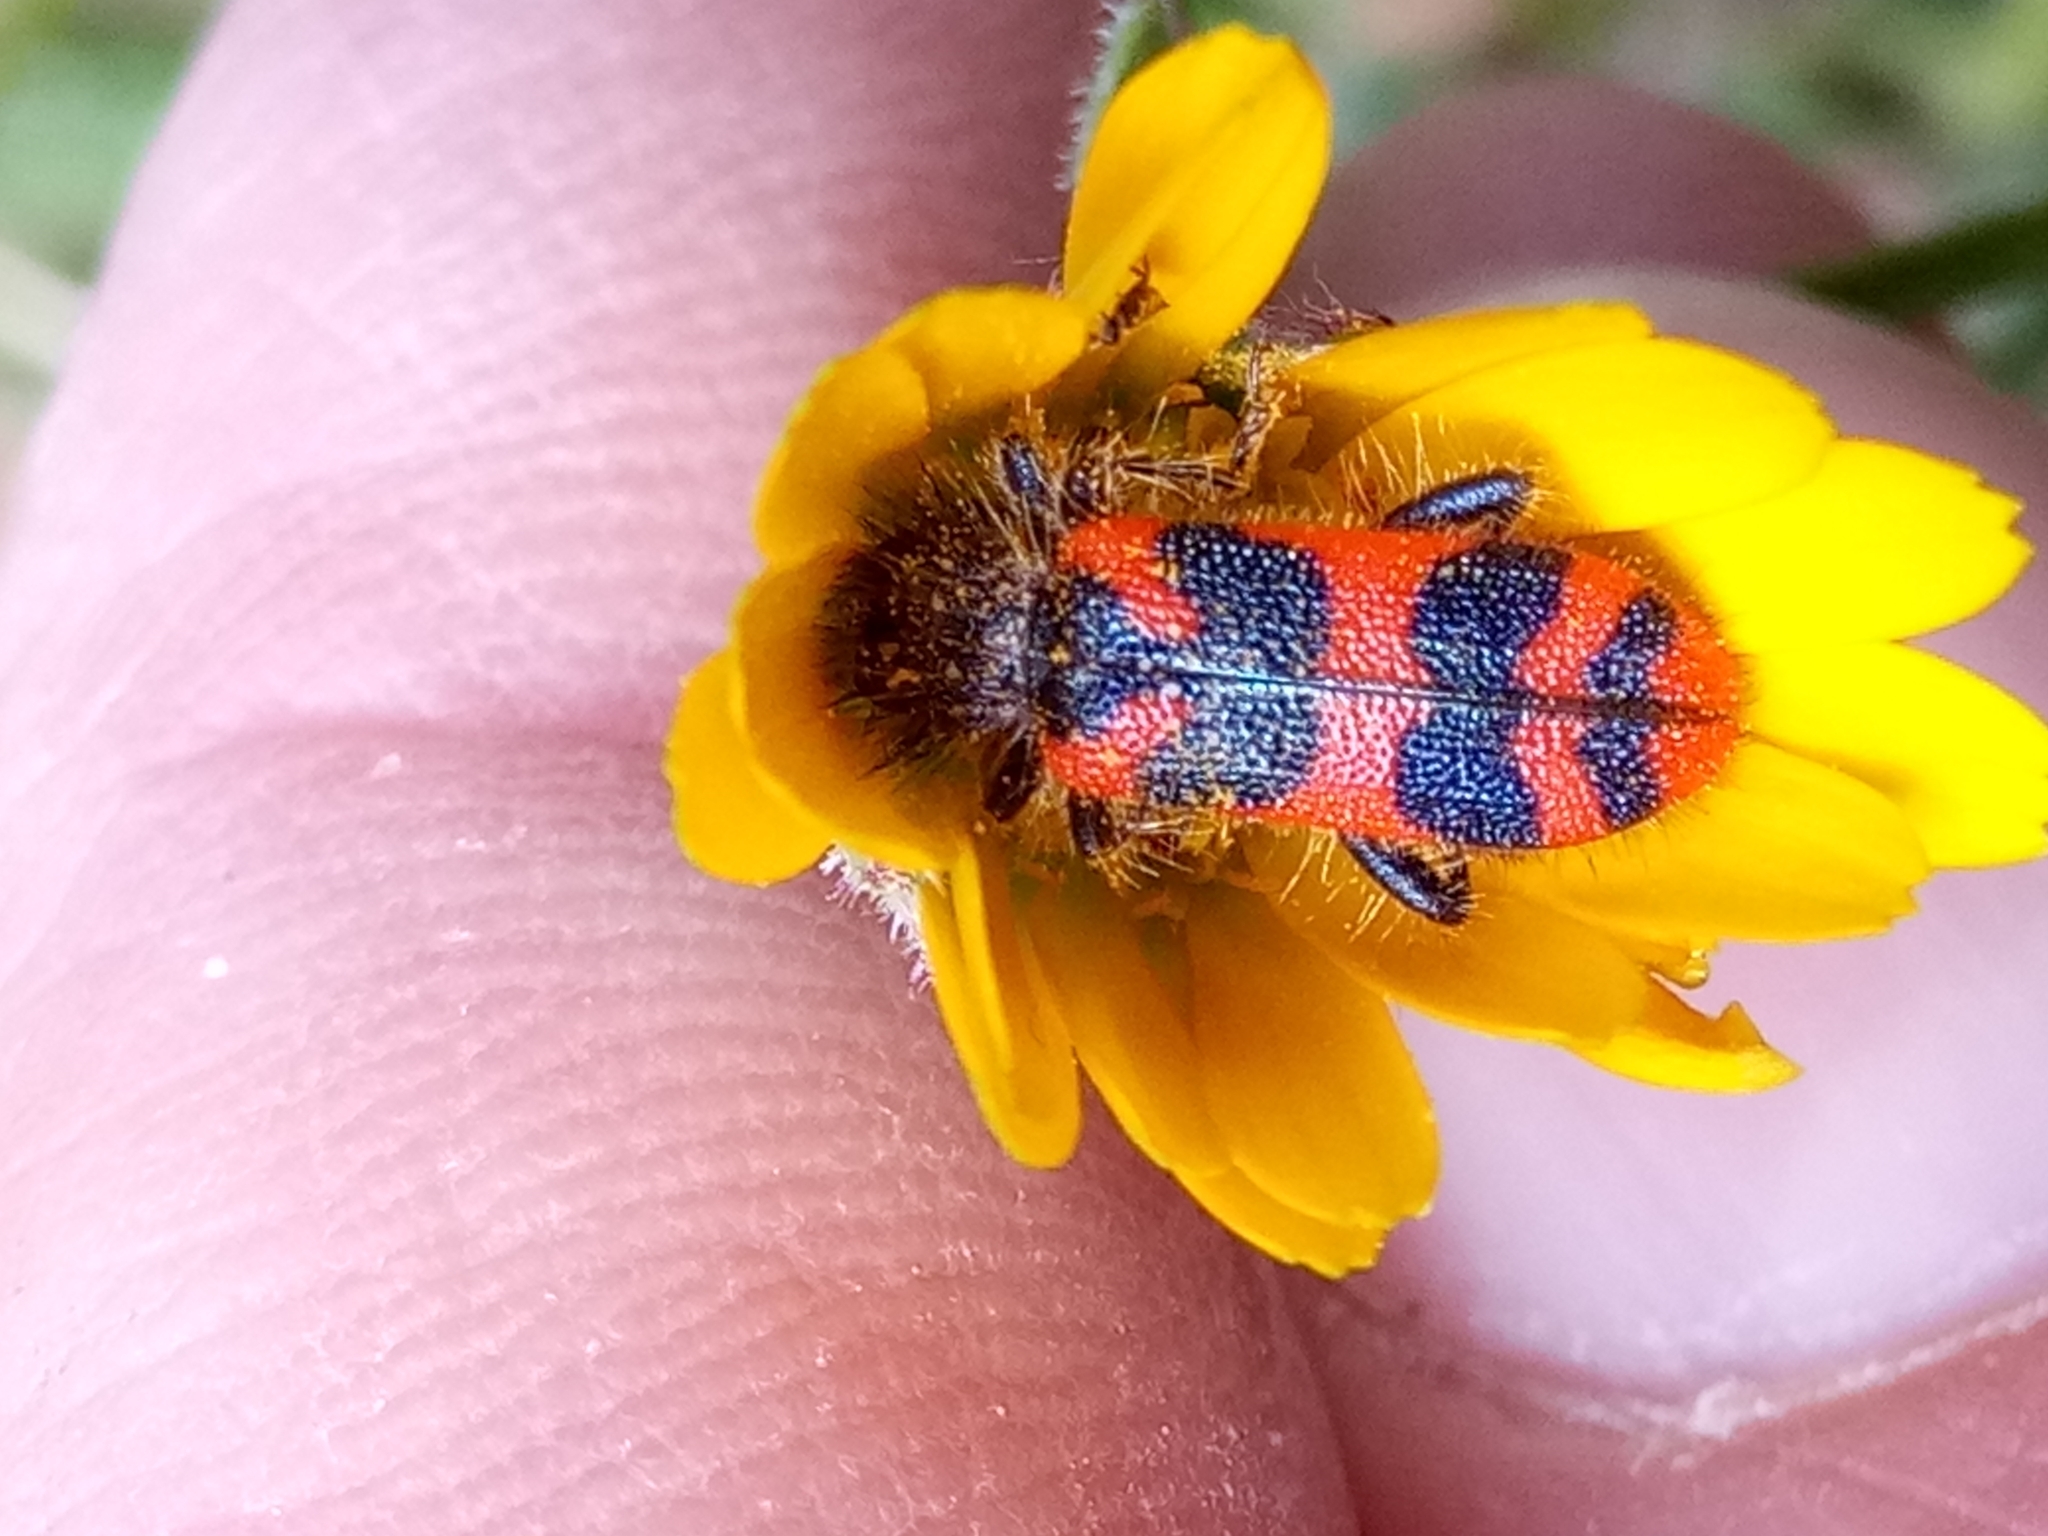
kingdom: Animalia
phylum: Arthropoda
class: Insecta
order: Coleoptera
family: Cleridae
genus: Trichodes
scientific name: Trichodes umbellatarum
